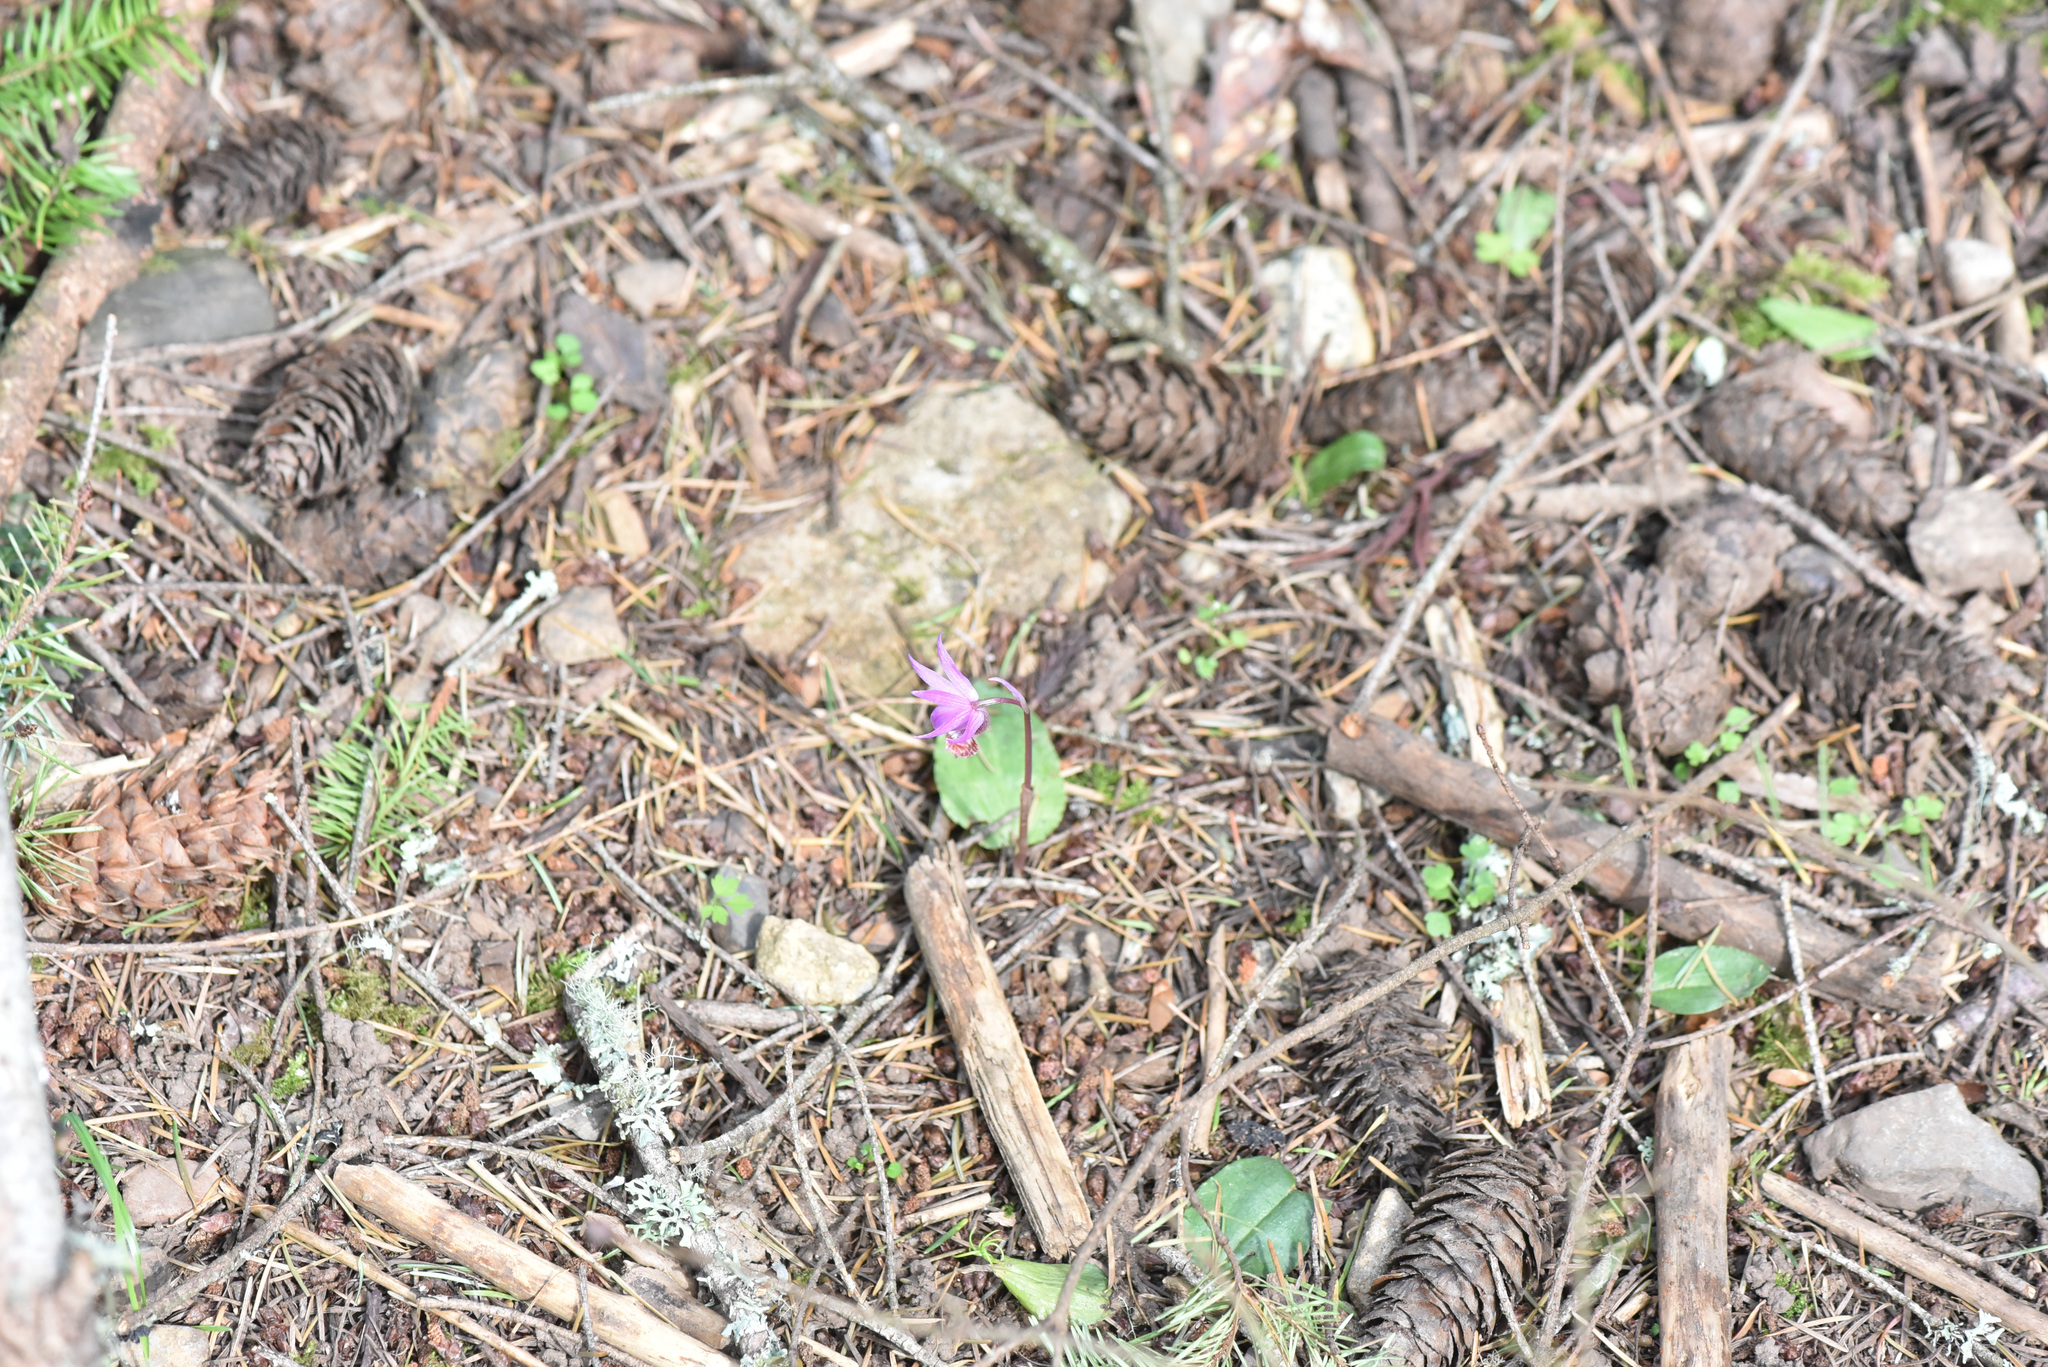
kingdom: Plantae
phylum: Tracheophyta
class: Liliopsida
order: Asparagales
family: Orchidaceae
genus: Calypso
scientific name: Calypso bulbosa
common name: Calypso
